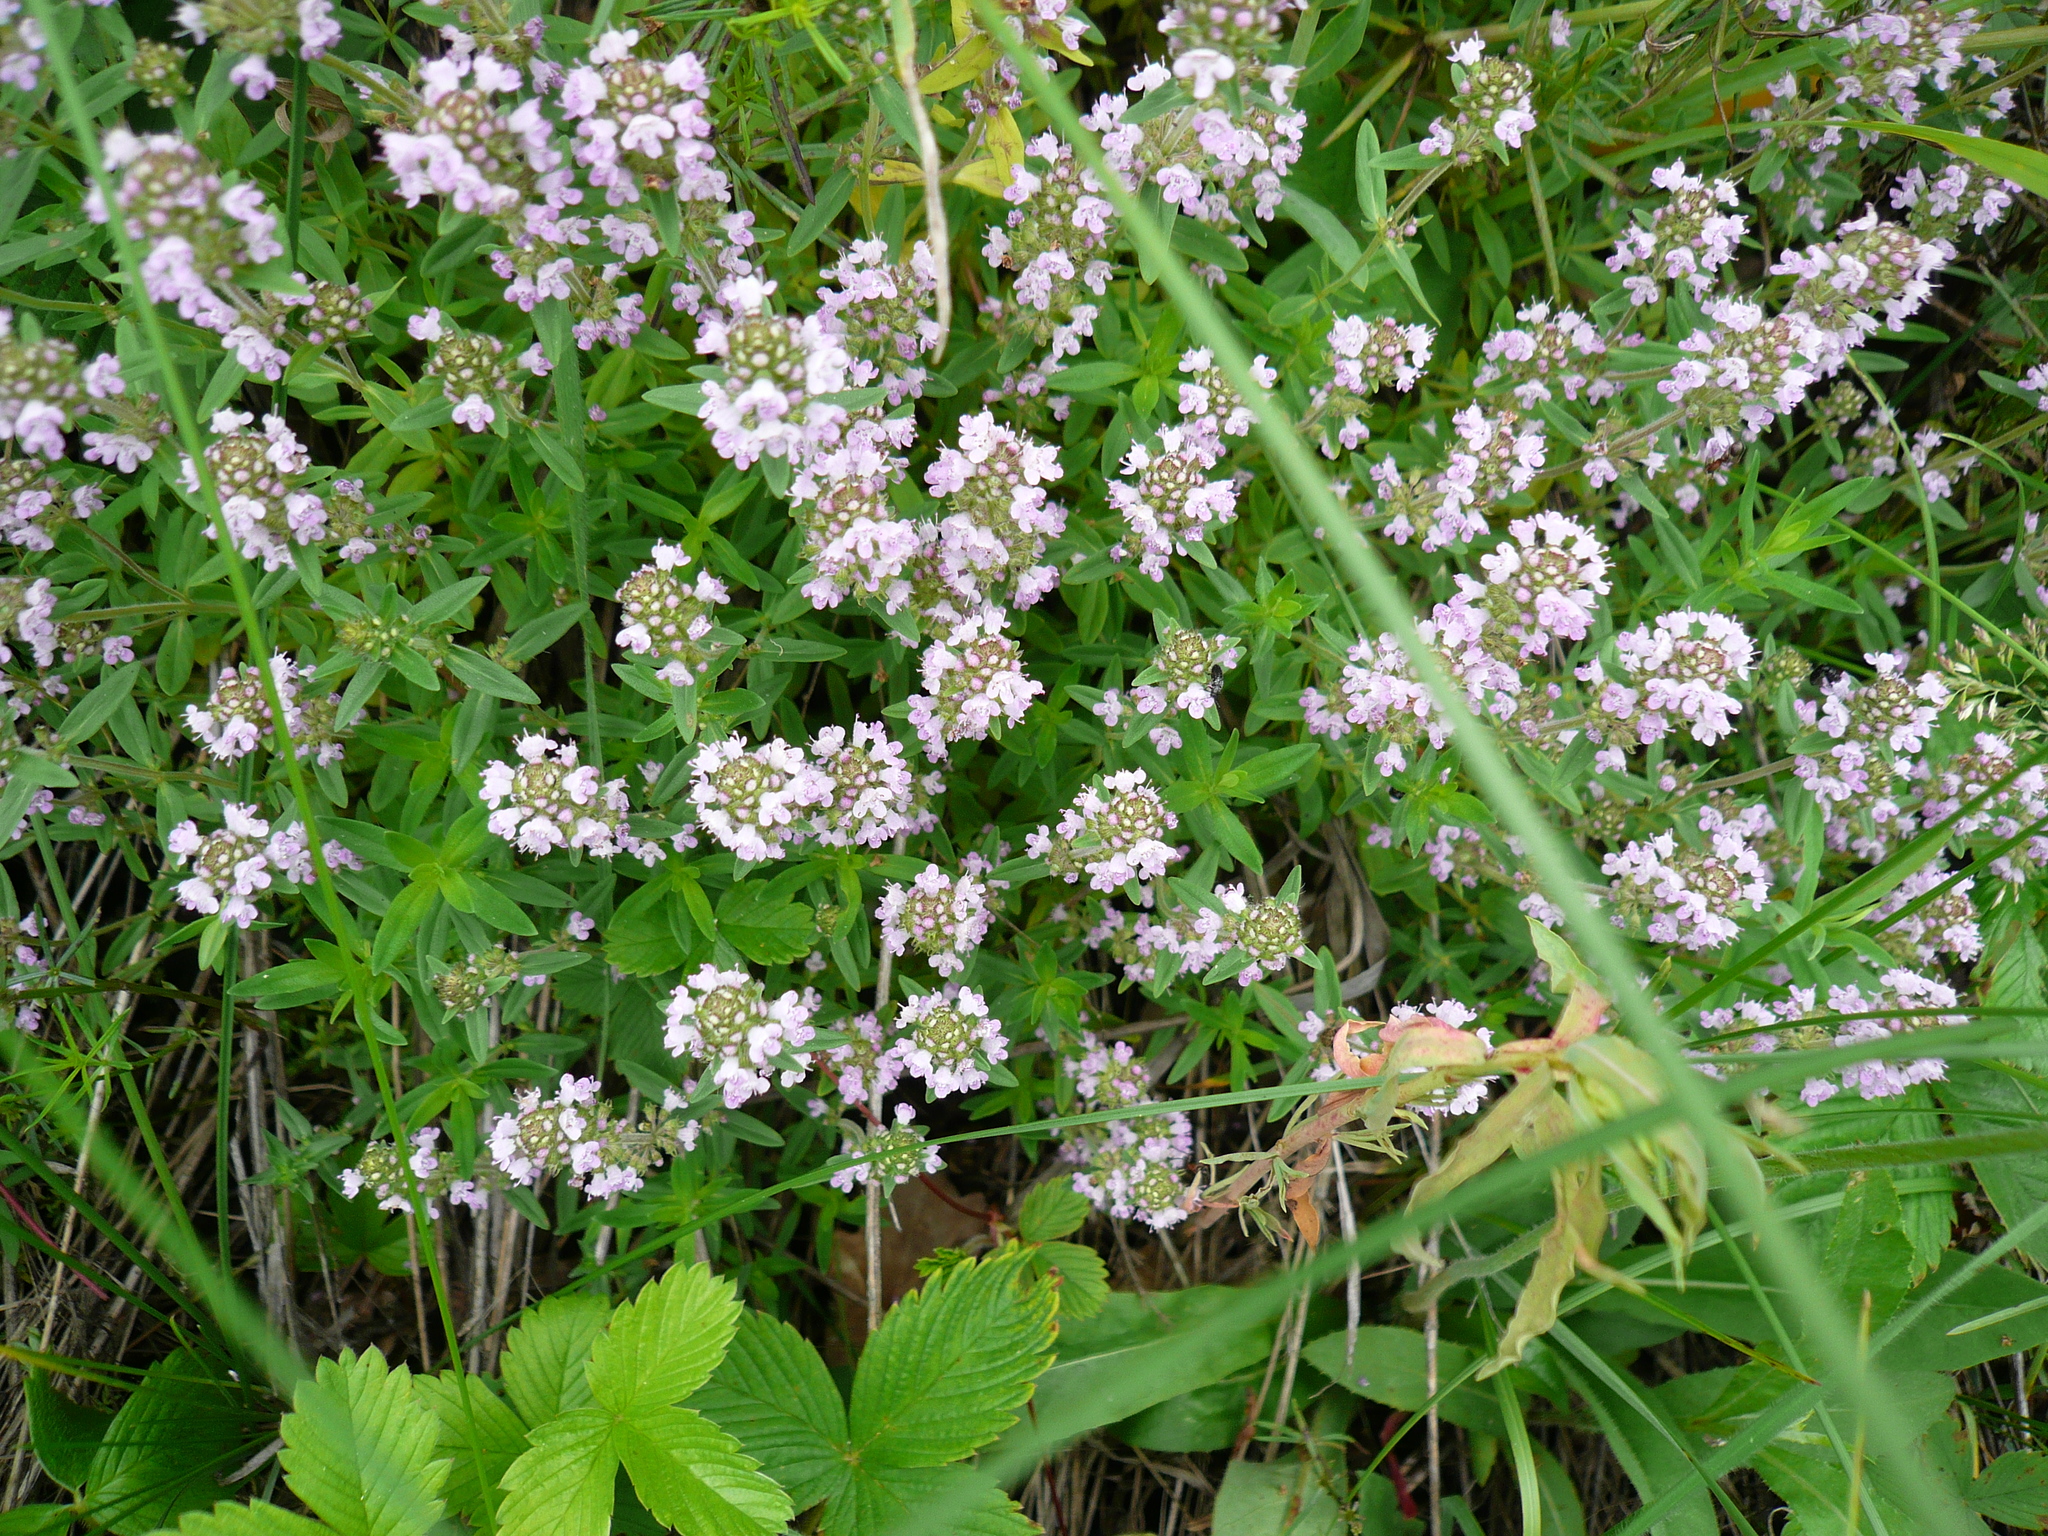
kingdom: Plantae
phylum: Tracheophyta
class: Magnoliopsida
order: Lamiales
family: Lamiaceae
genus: Thymus
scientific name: Thymus pannonicus
